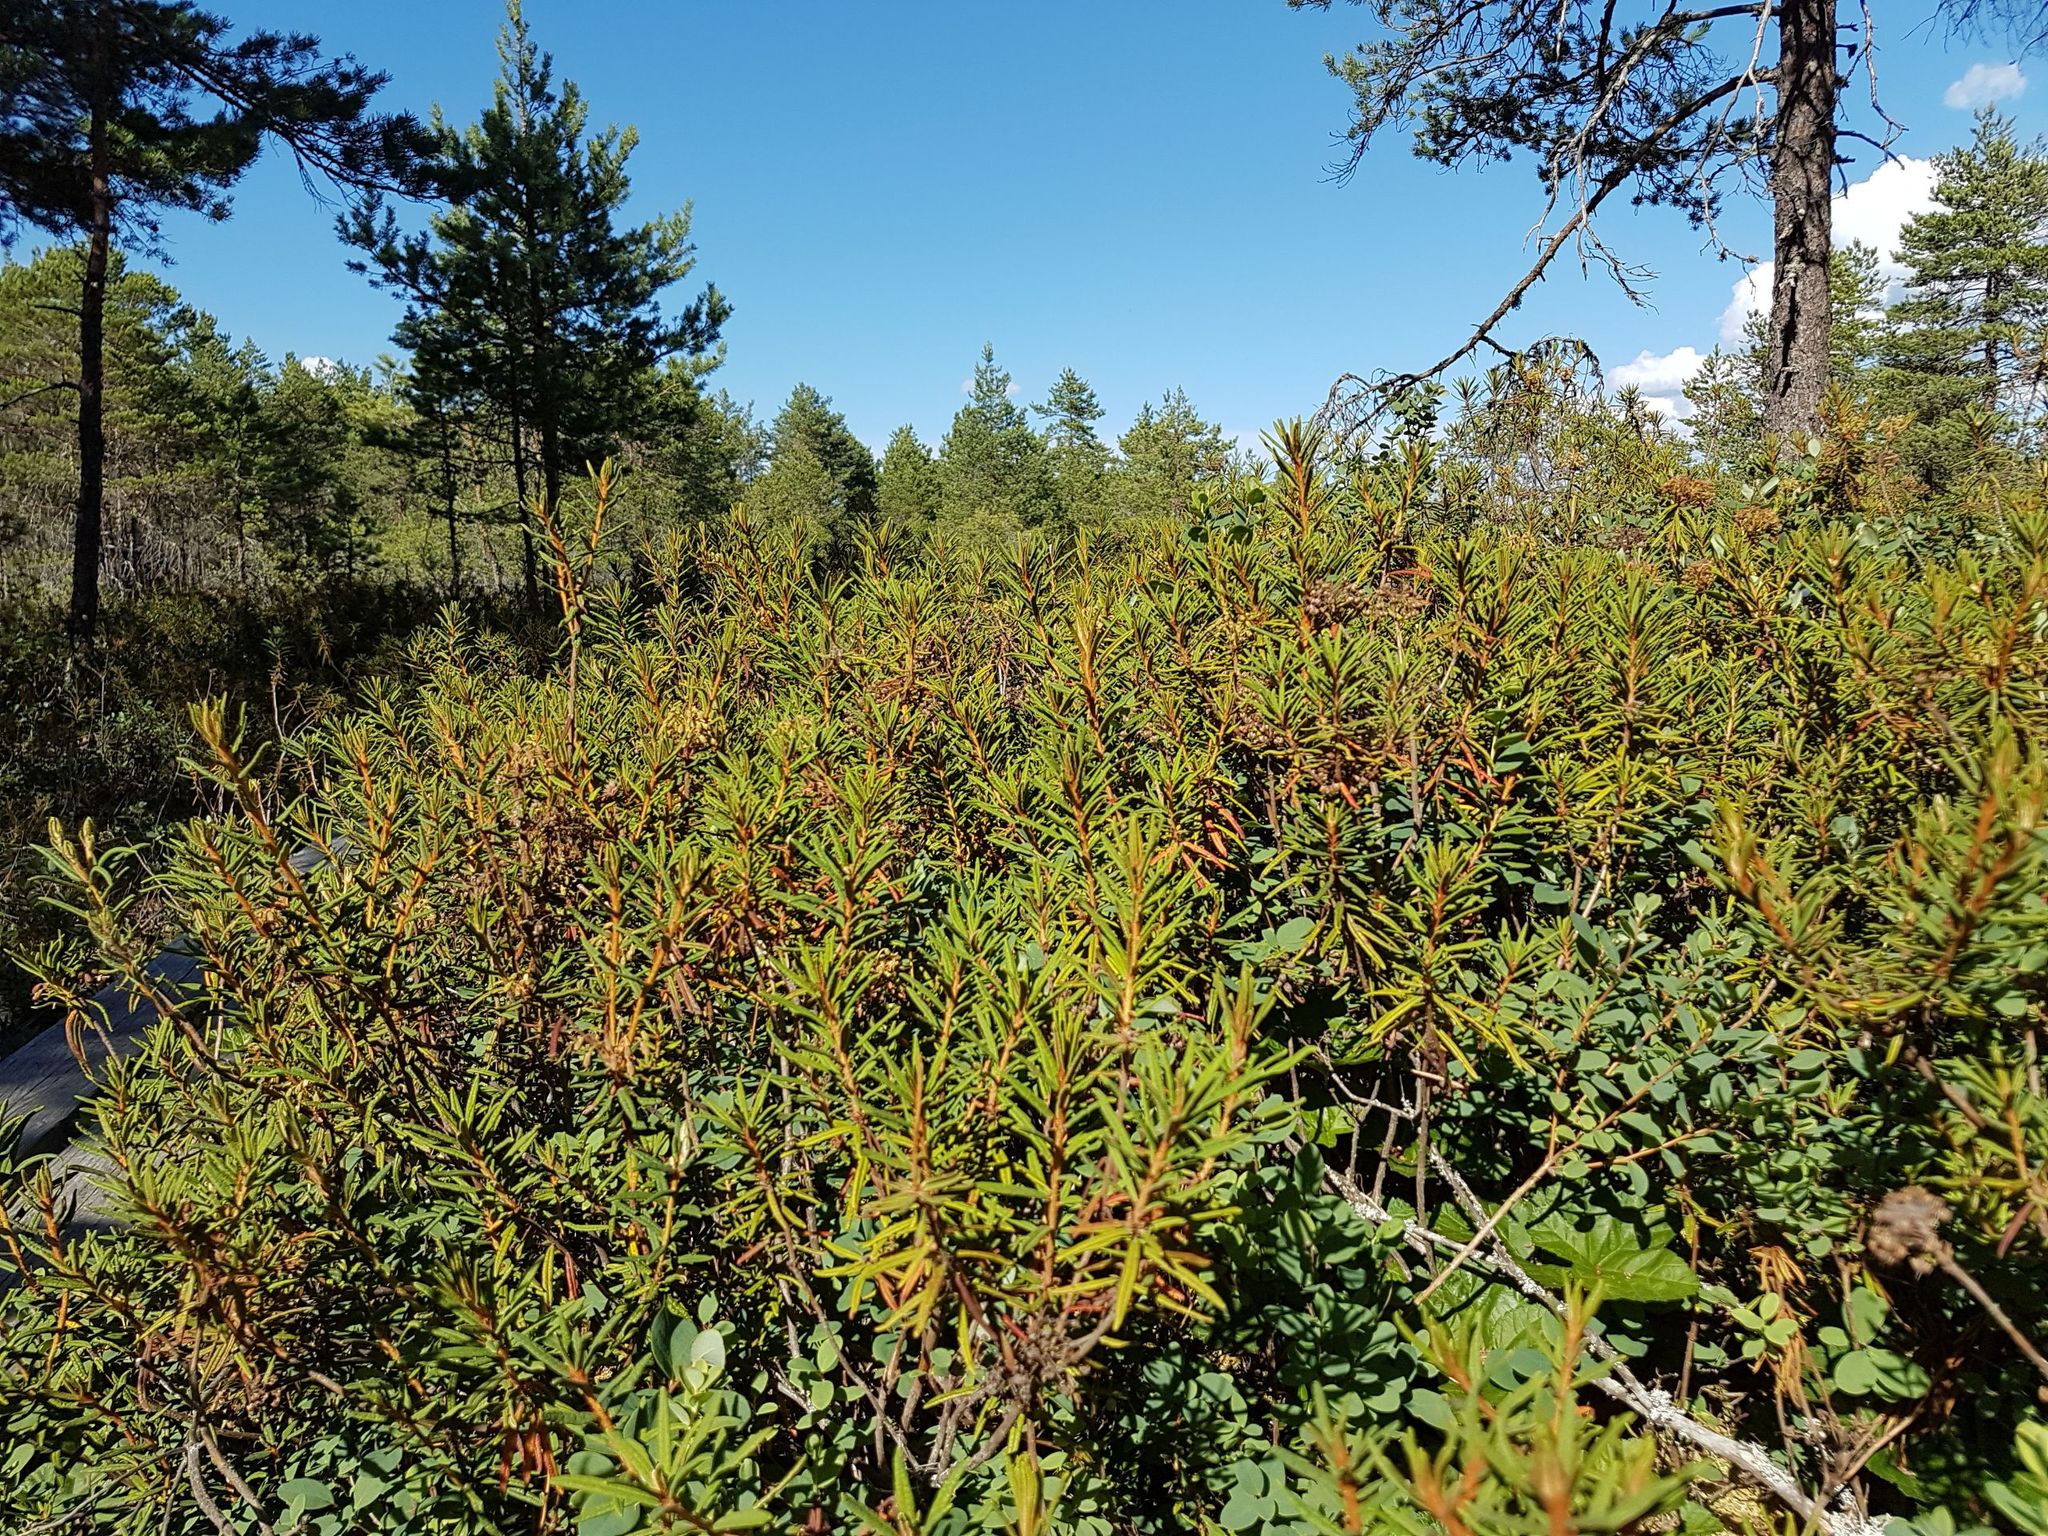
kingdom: Plantae
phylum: Tracheophyta
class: Magnoliopsida
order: Ericales
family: Ericaceae
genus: Rhododendron
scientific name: Rhododendron tomentosum
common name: Marsh labrador tea
